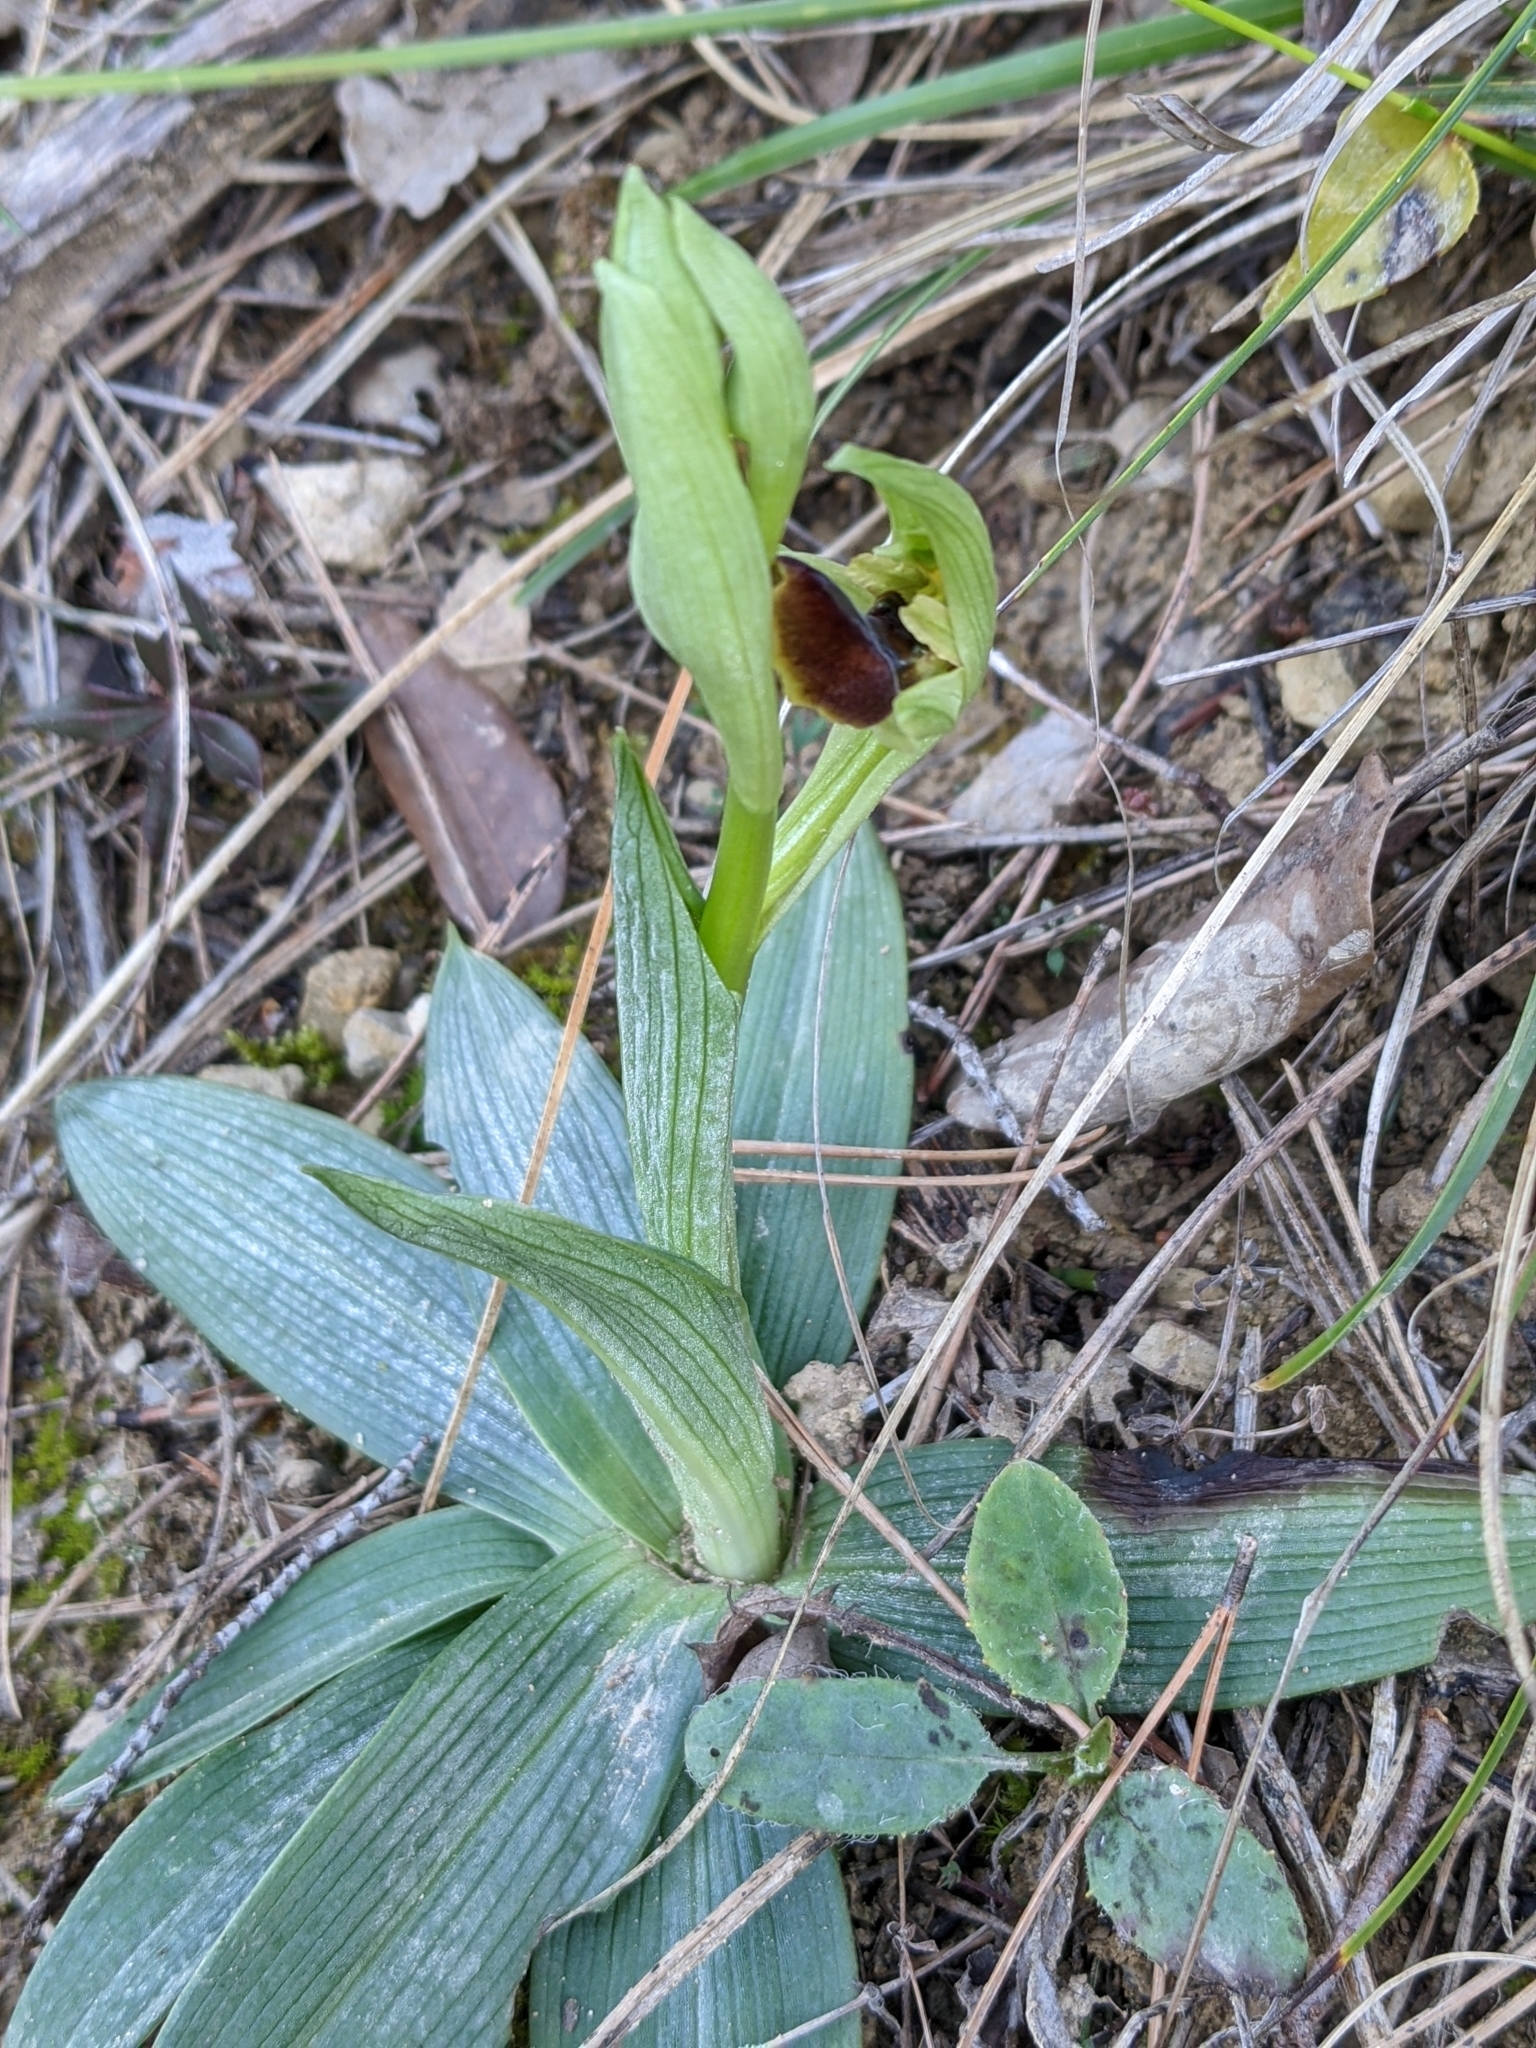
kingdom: Plantae
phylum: Tracheophyta
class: Liliopsida
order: Asparagales
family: Orchidaceae
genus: Ophrys
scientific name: Ophrys sphegodes
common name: Early spider-orchid
